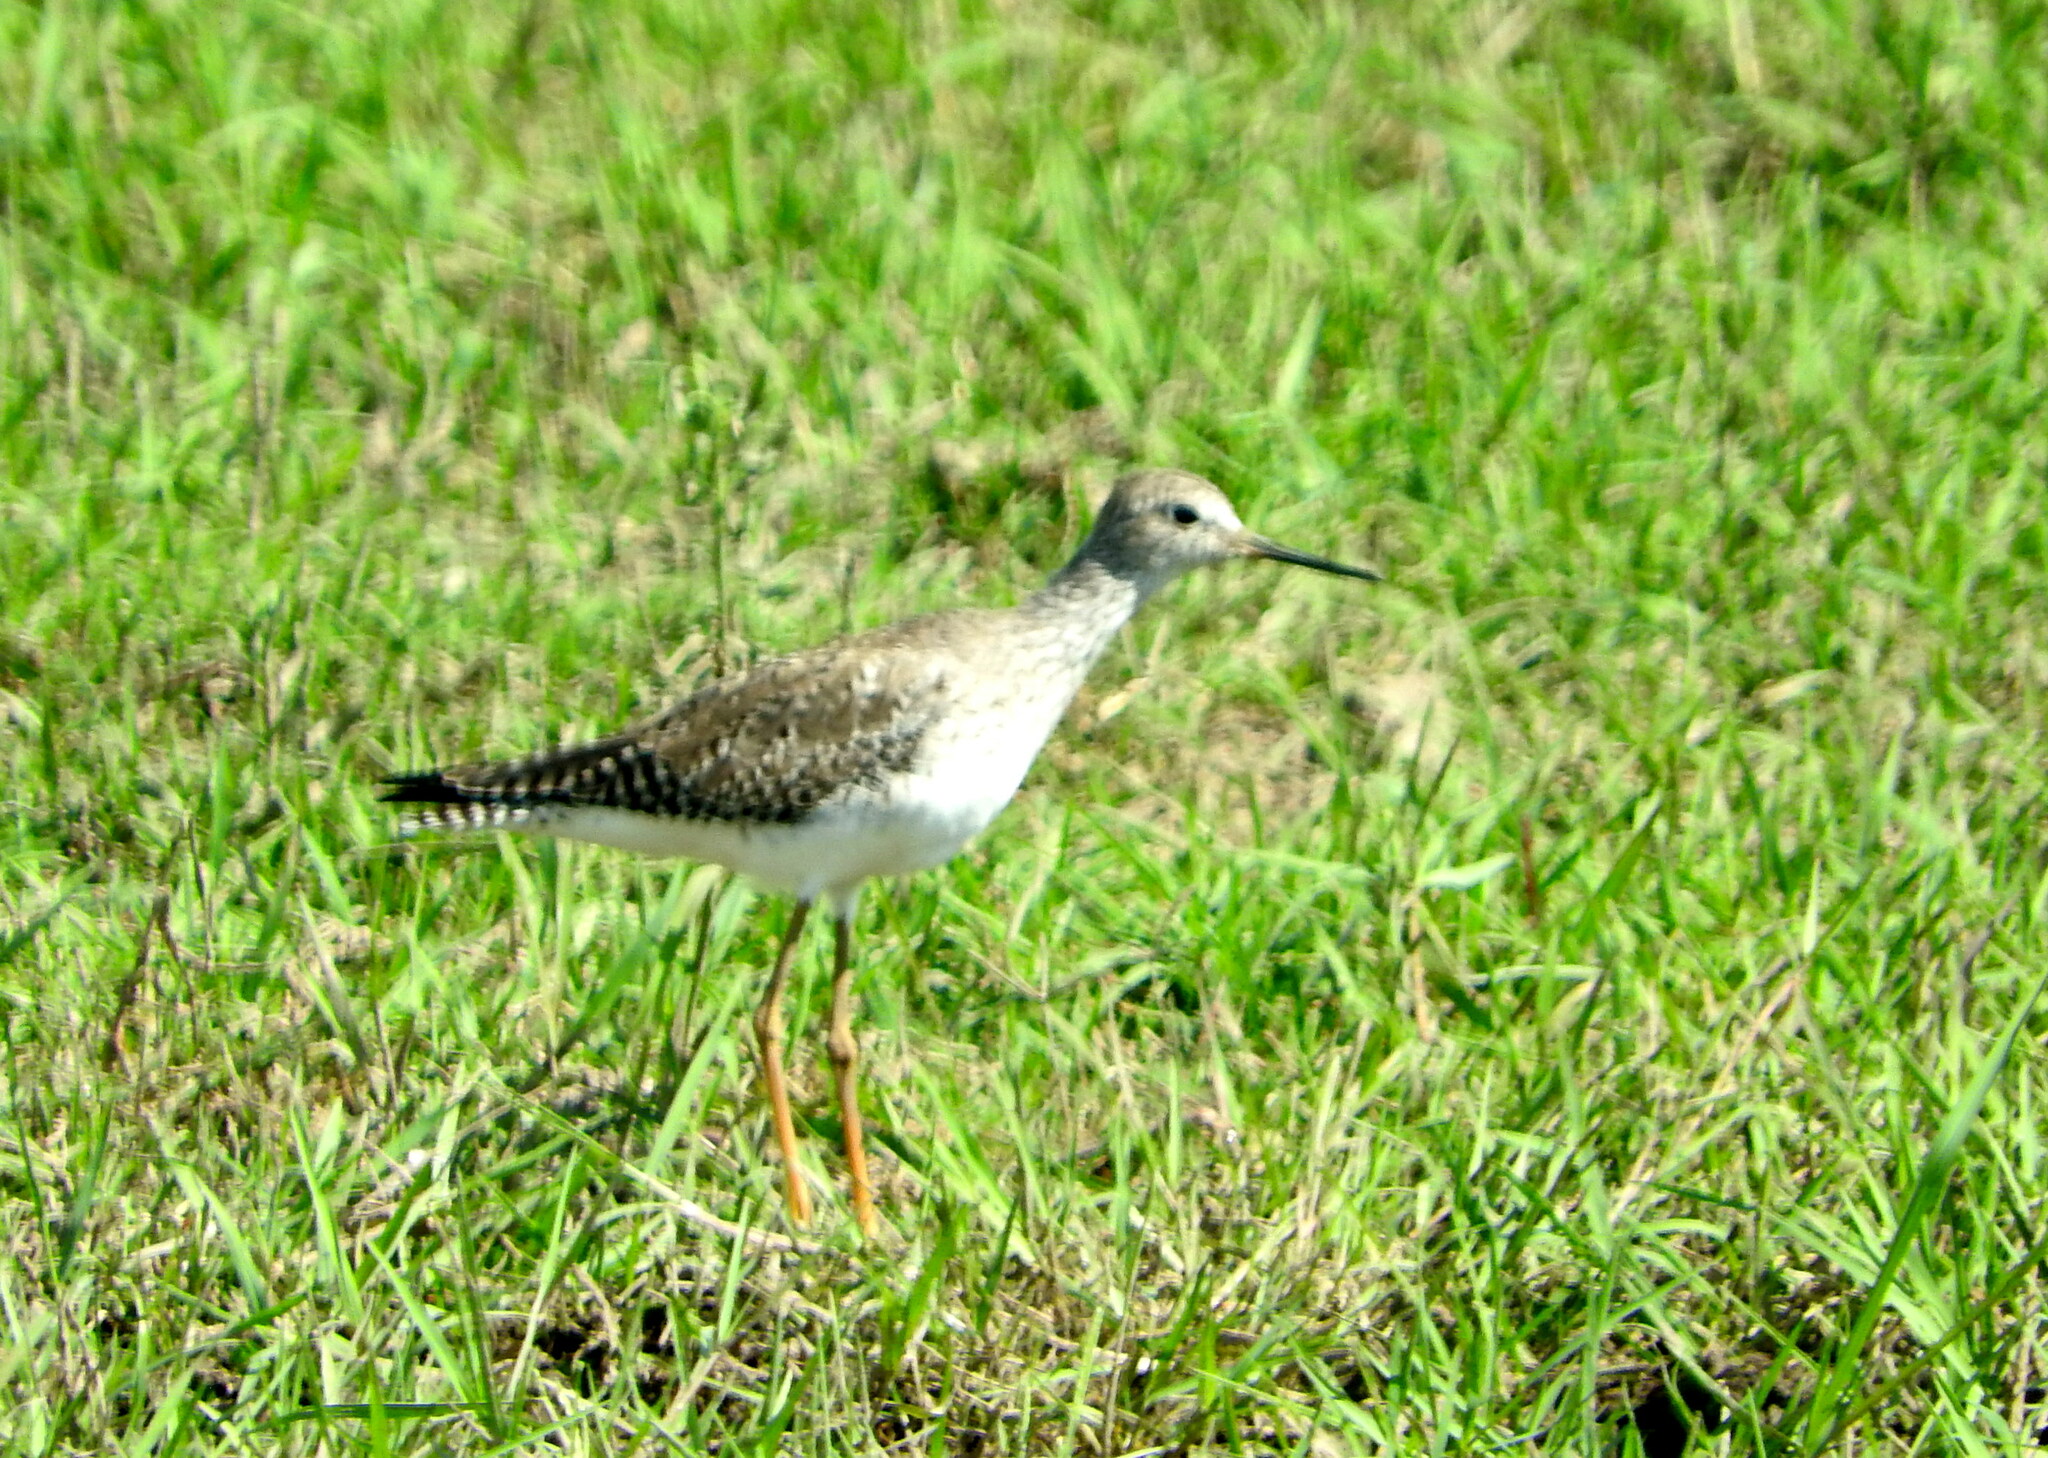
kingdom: Animalia
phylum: Chordata
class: Aves
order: Charadriiformes
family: Scolopacidae
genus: Tringa
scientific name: Tringa flavipes
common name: Lesser yellowlegs
